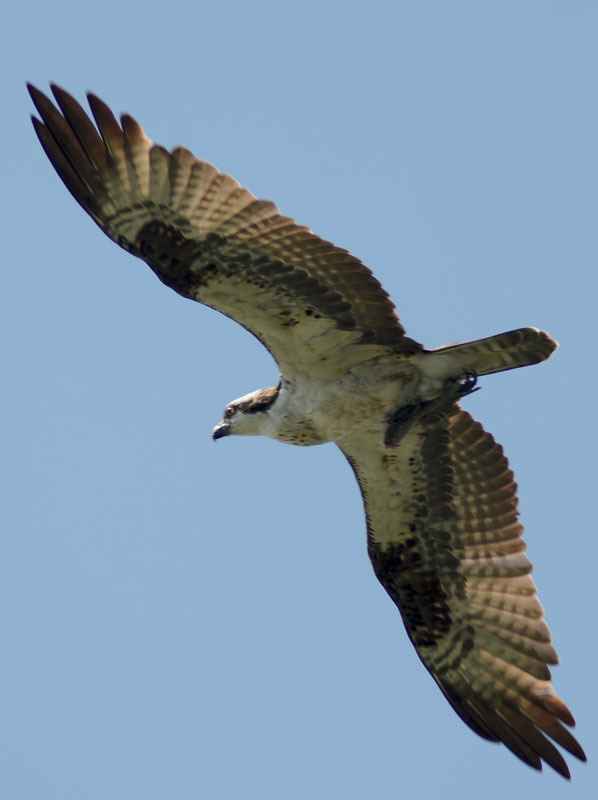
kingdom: Animalia
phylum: Chordata
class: Aves
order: Accipitriformes
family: Pandionidae
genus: Pandion
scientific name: Pandion haliaetus
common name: Osprey
